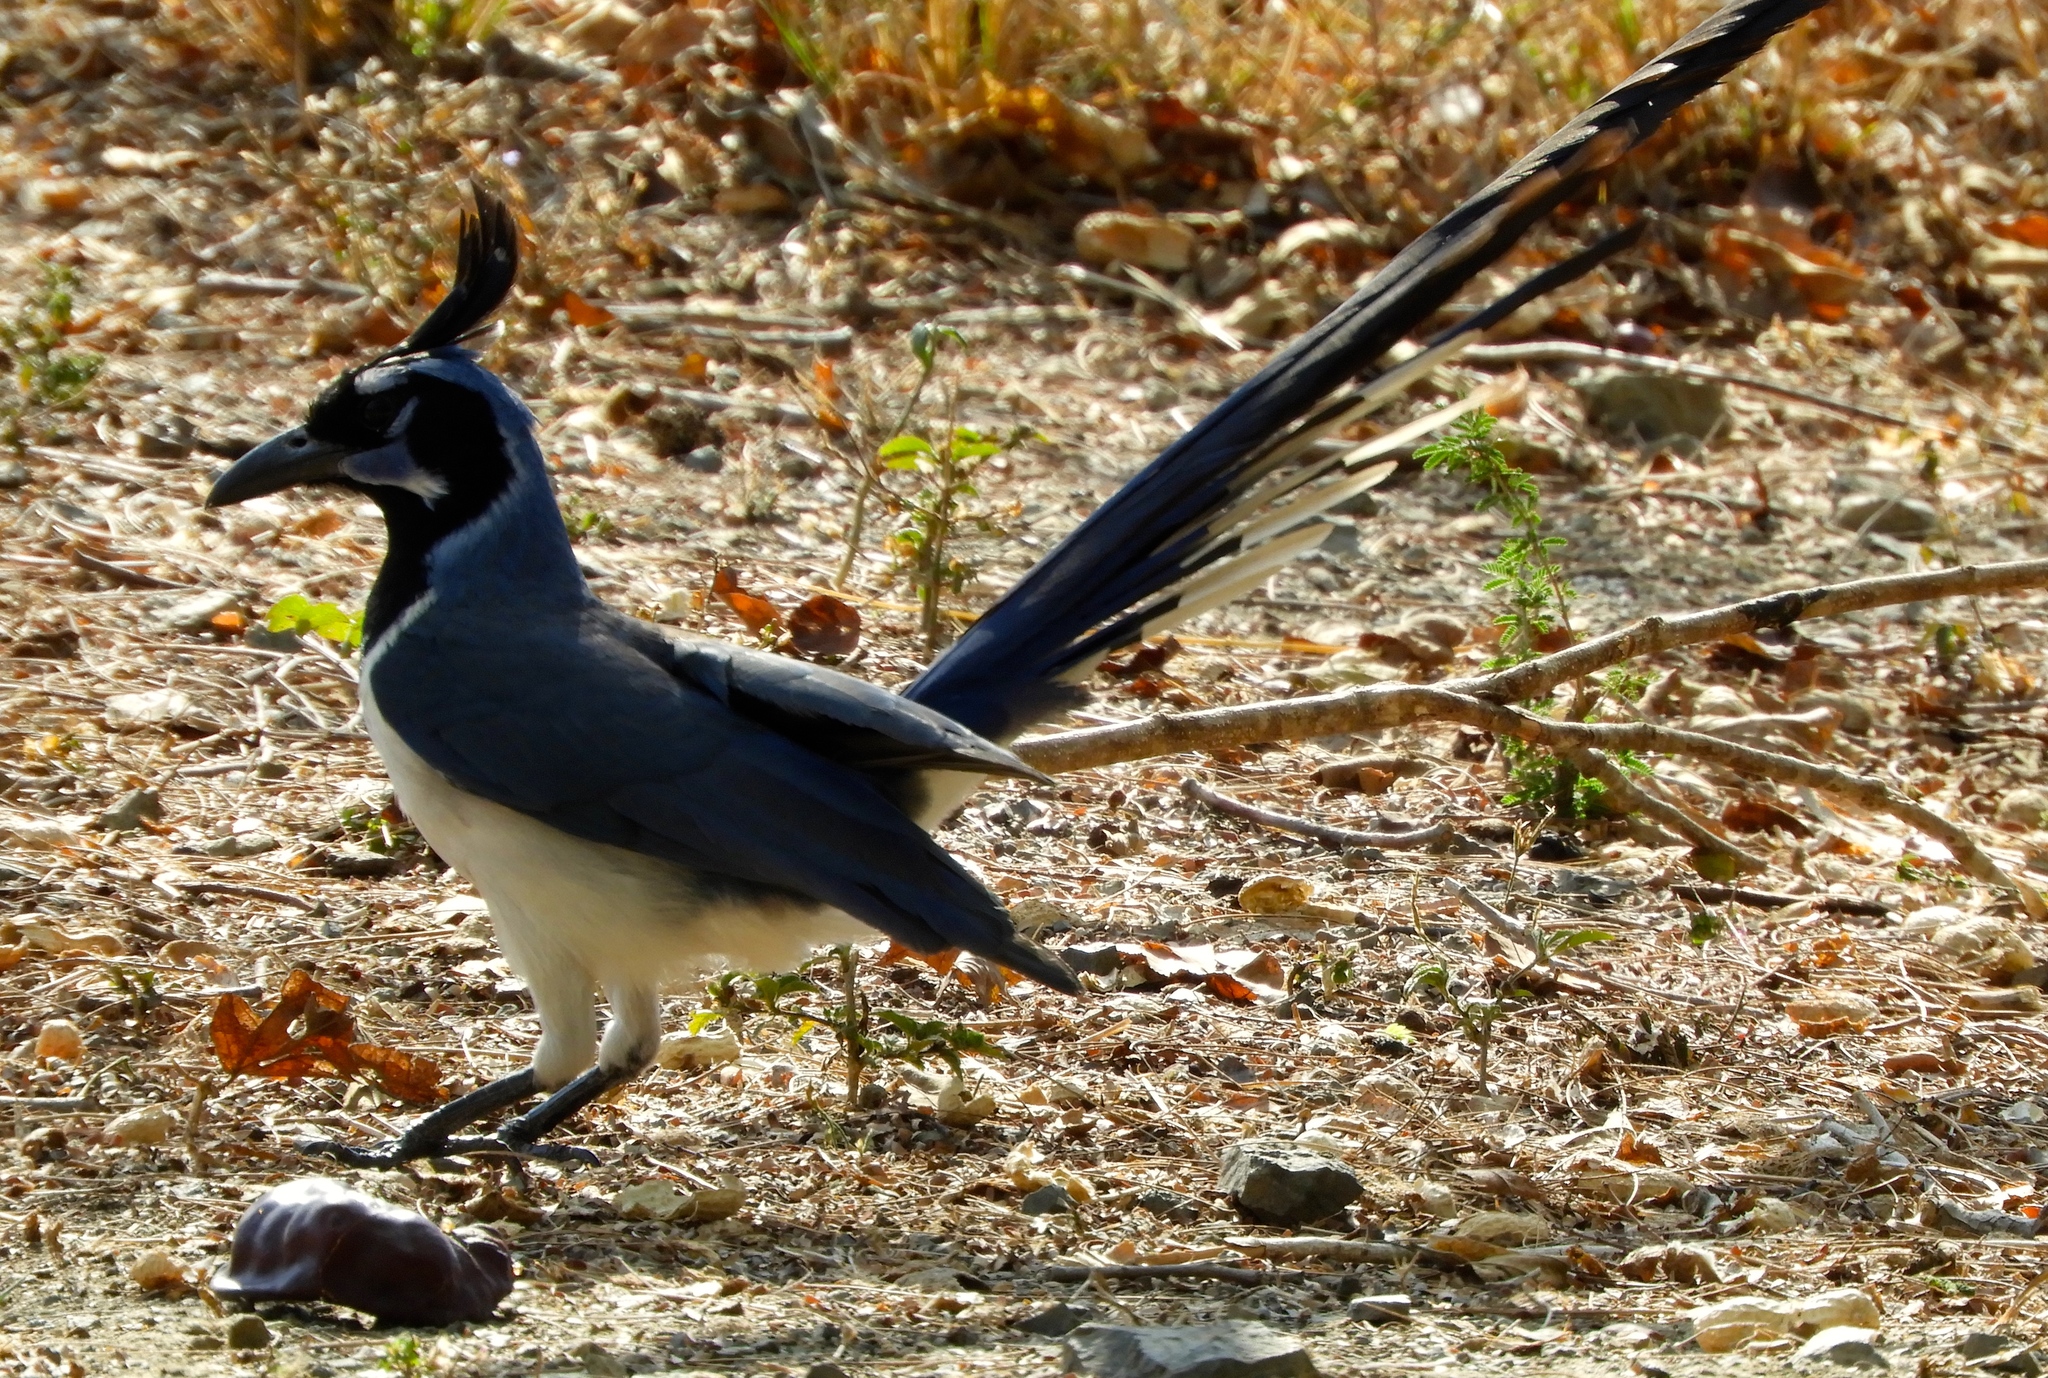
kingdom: Animalia
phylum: Chordata
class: Aves
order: Passeriformes
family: Corvidae
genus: Calocitta
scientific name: Calocitta colliei
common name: Black-throated magpie-jay
